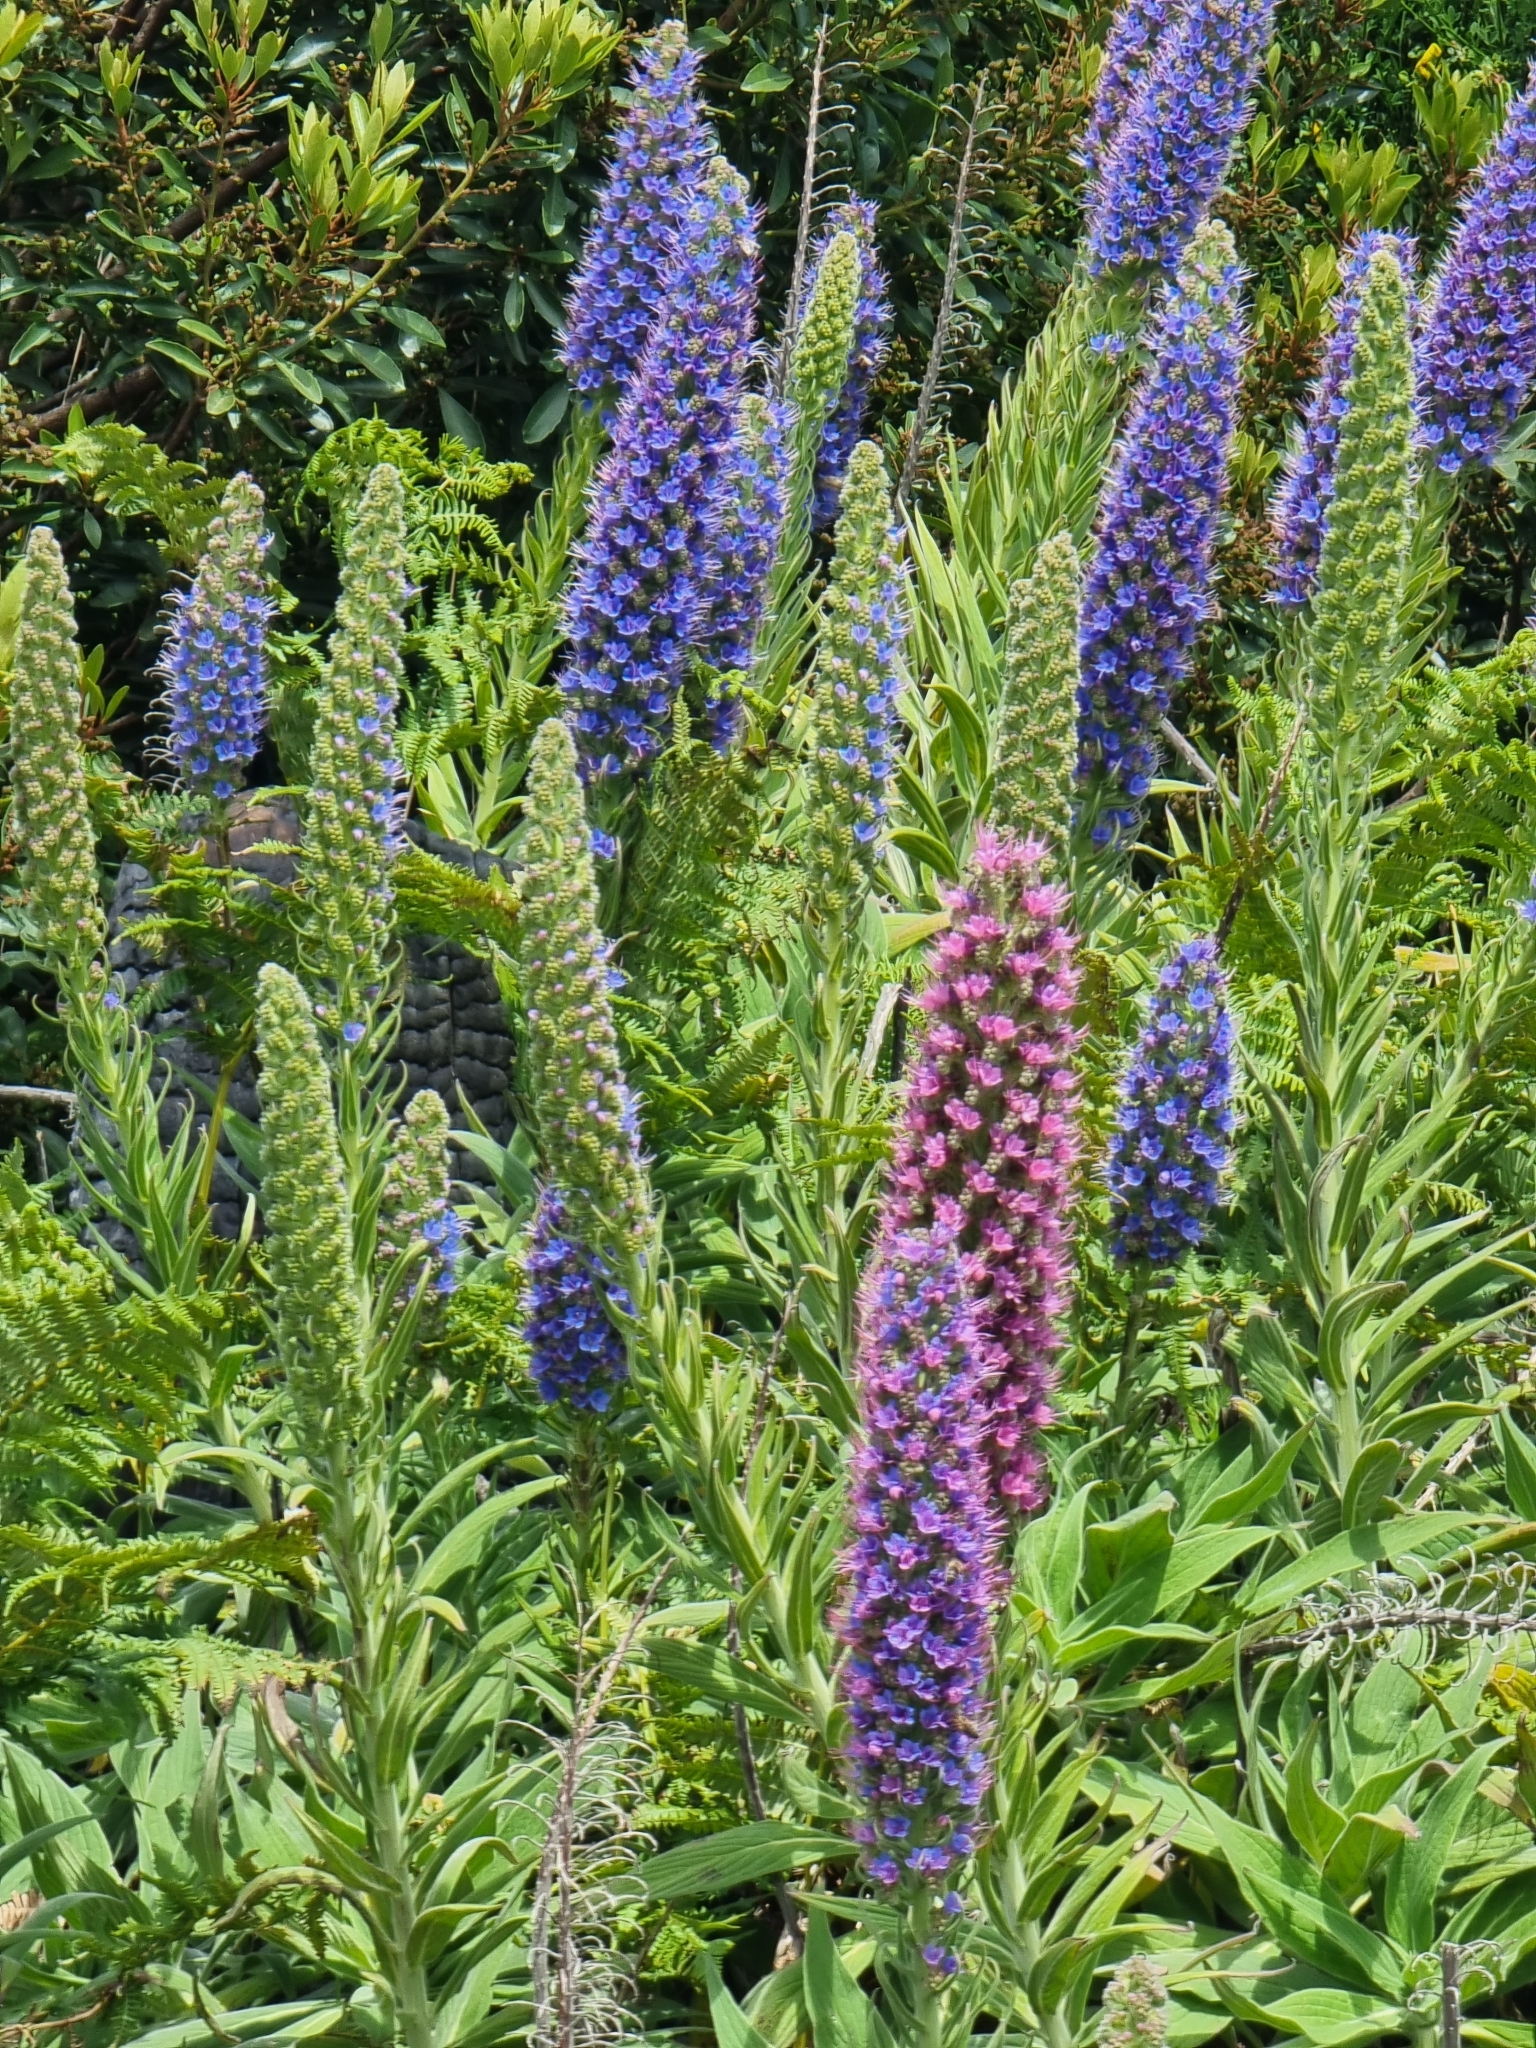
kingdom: Plantae
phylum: Tracheophyta
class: Magnoliopsida
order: Boraginales
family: Boraginaceae
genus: Echium
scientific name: Echium candicans
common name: Pride of madeira
